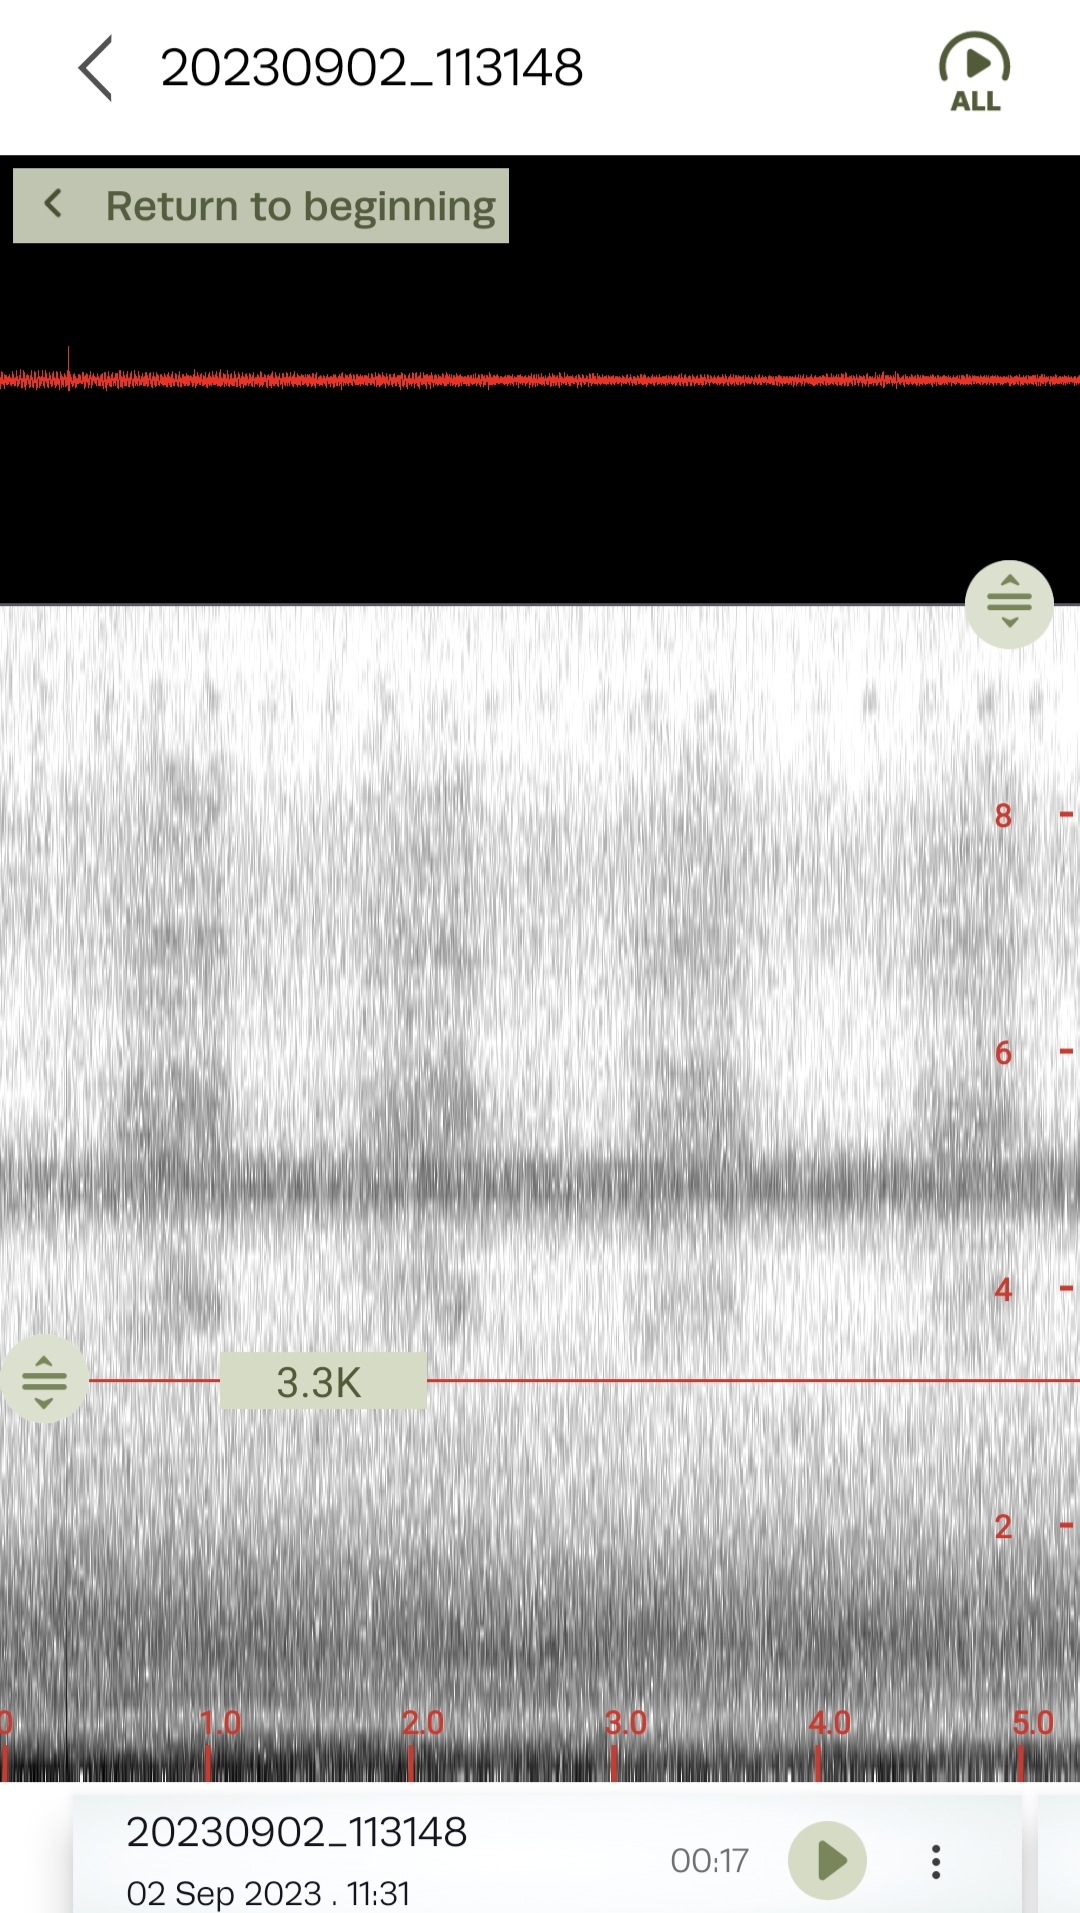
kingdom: Animalia
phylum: Arthropoda
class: Insecta
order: Hemiptera
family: Cicadidae
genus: Neotibicen
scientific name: Neotibicen robinsonianus
